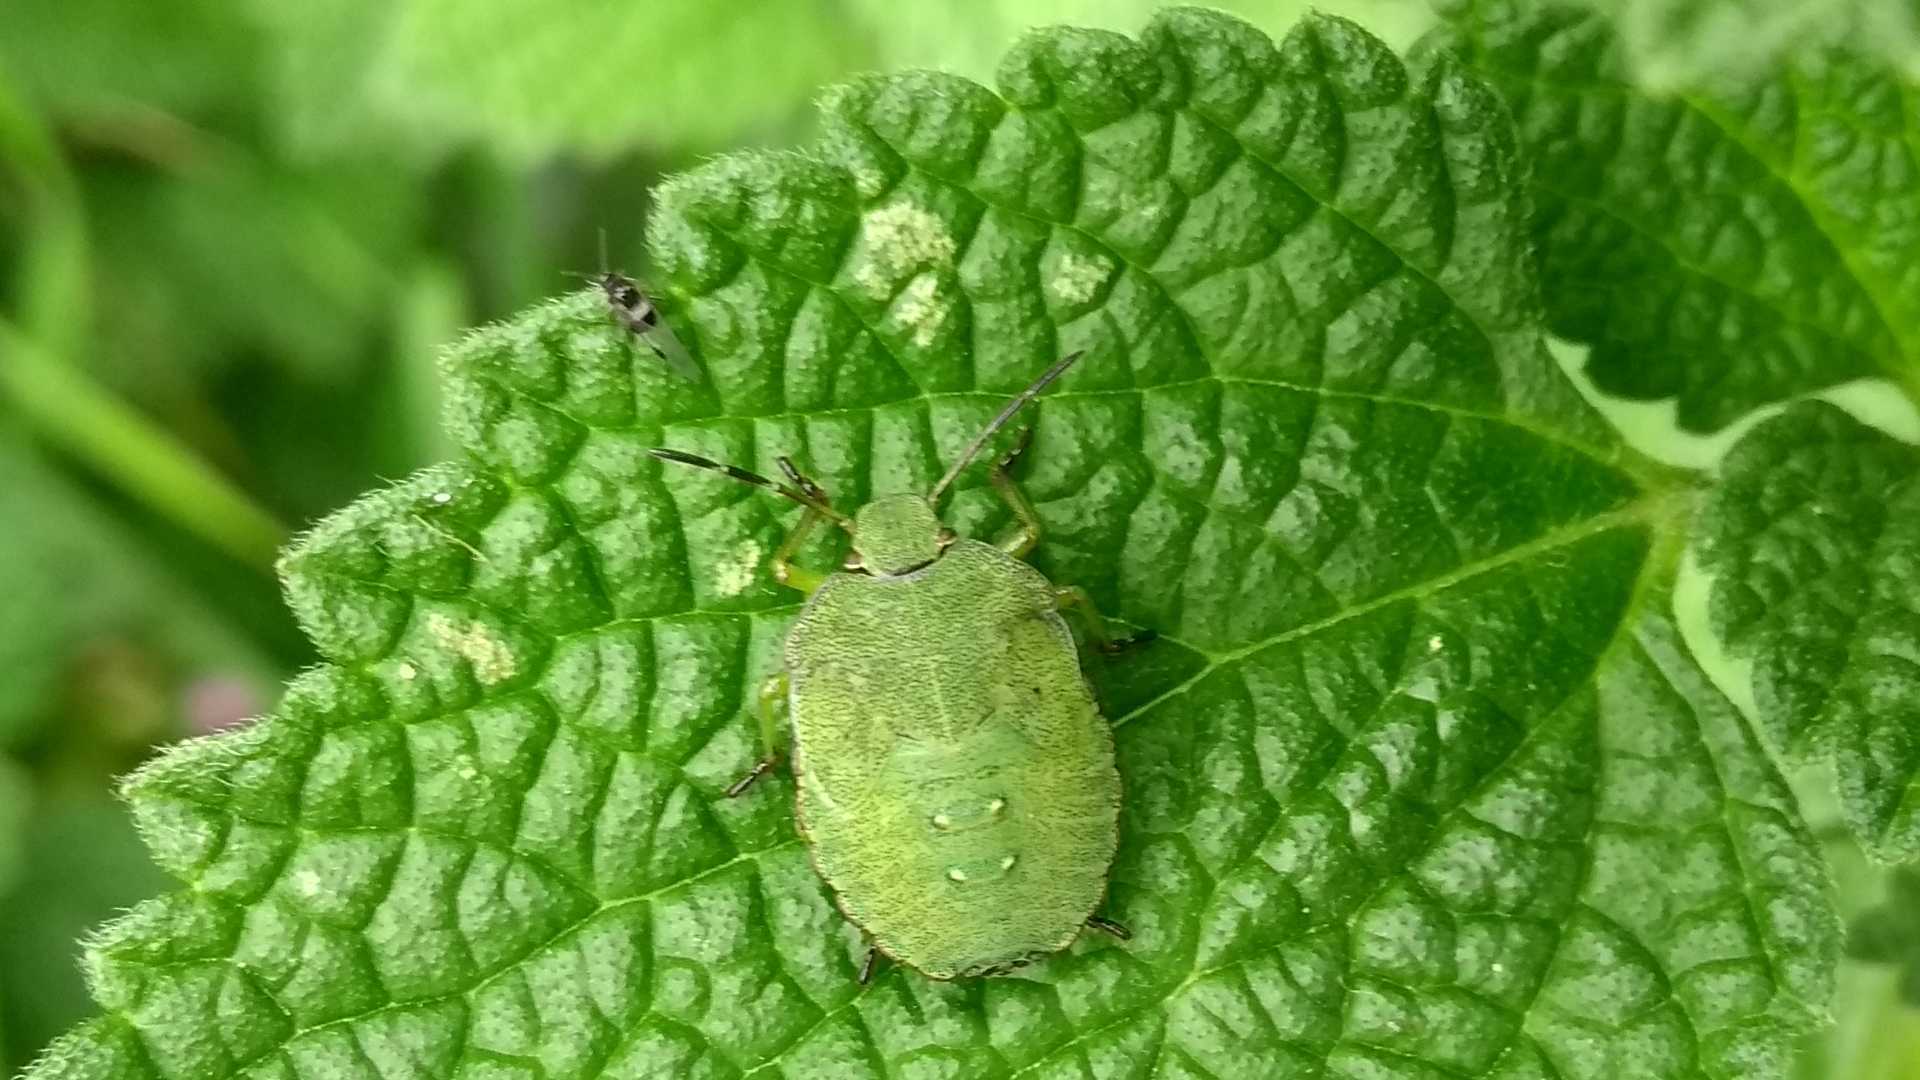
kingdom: Animalia
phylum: Arthropoda
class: Insecta
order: Hemiptera
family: Pentatomidae
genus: Palomena
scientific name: Palomena prasina
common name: Green shieldbug
